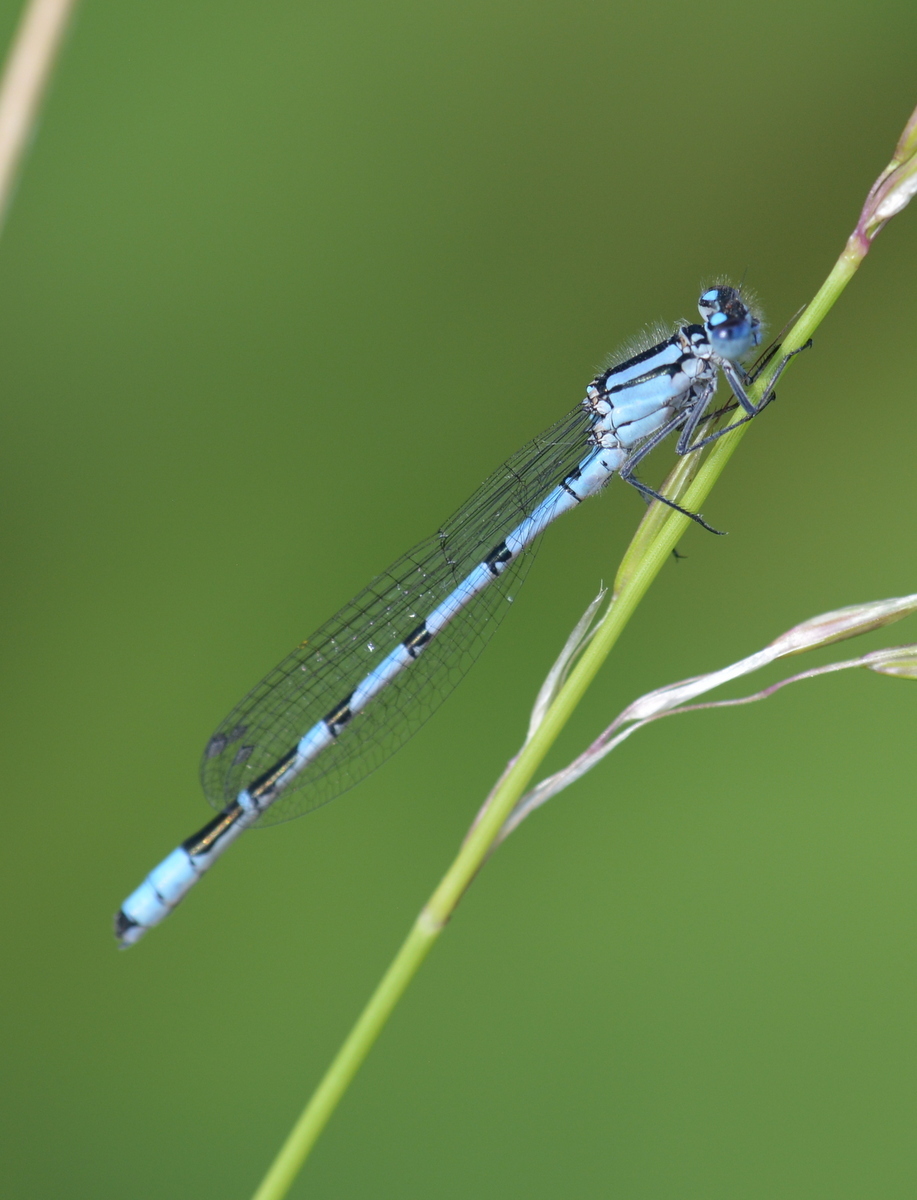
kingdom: Animalia
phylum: Arthropoda
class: Insecta
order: Odonata
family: Coenagrionidae
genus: Enallagma
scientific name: Enallagma cyathigerum
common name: Common blue damselfly
